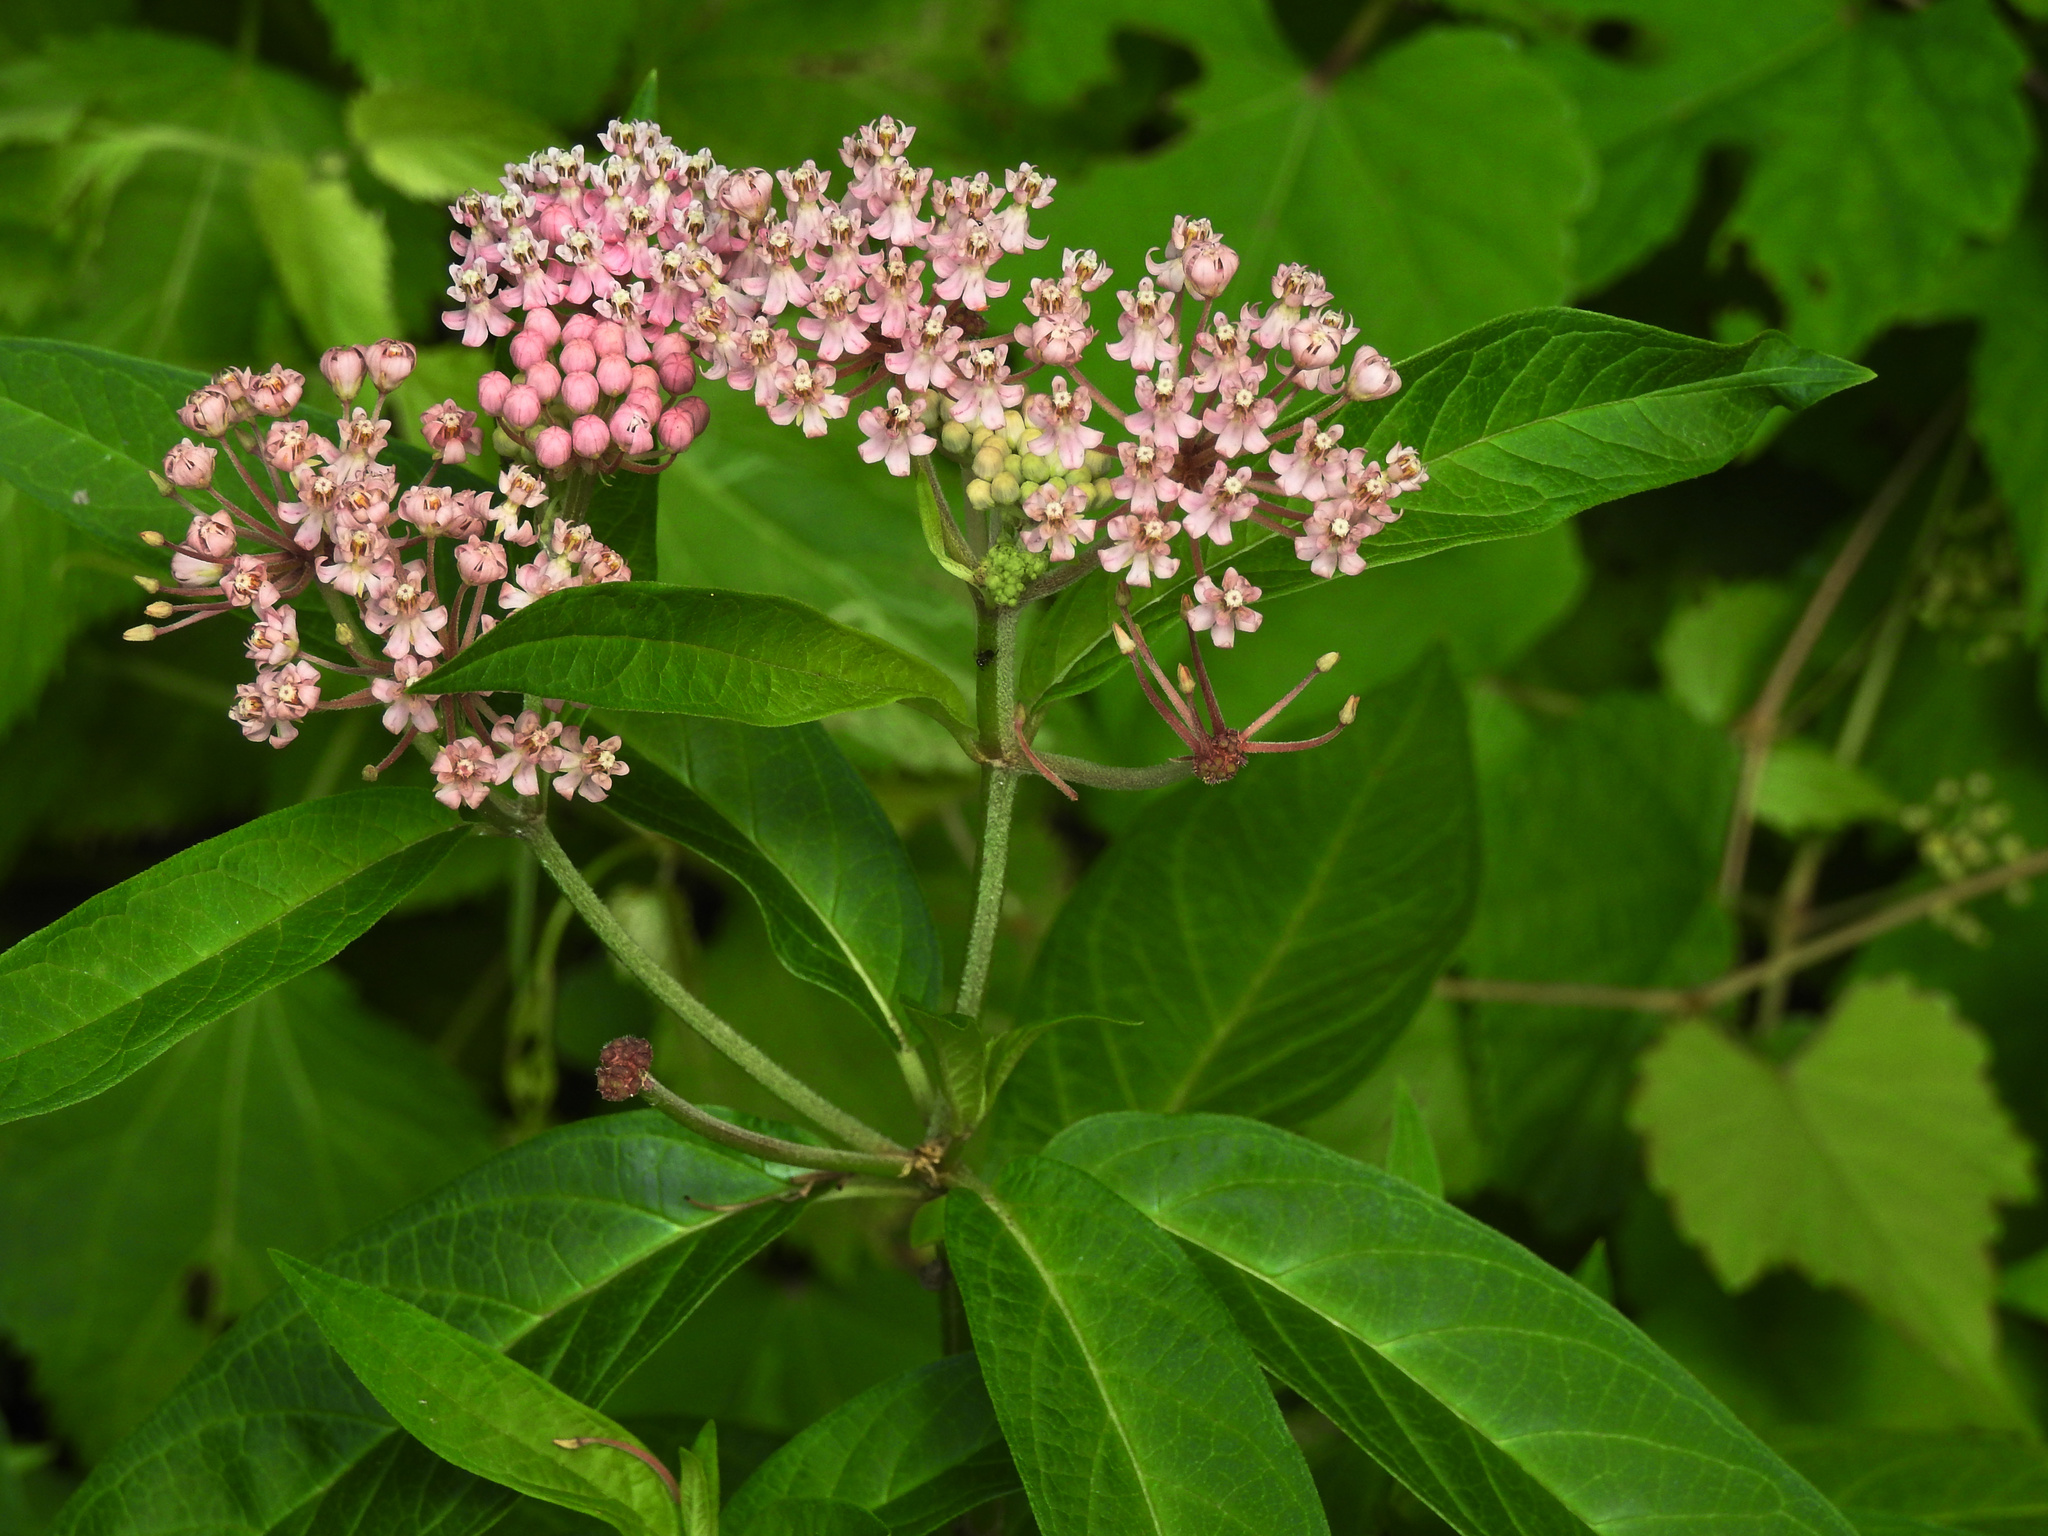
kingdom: Plantae
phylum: Tracheophyta
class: Magnoliopsida
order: Gentianales
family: Apocynaceae
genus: Asclepias
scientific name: Asclepias incarnata
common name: Swamp milkweed
